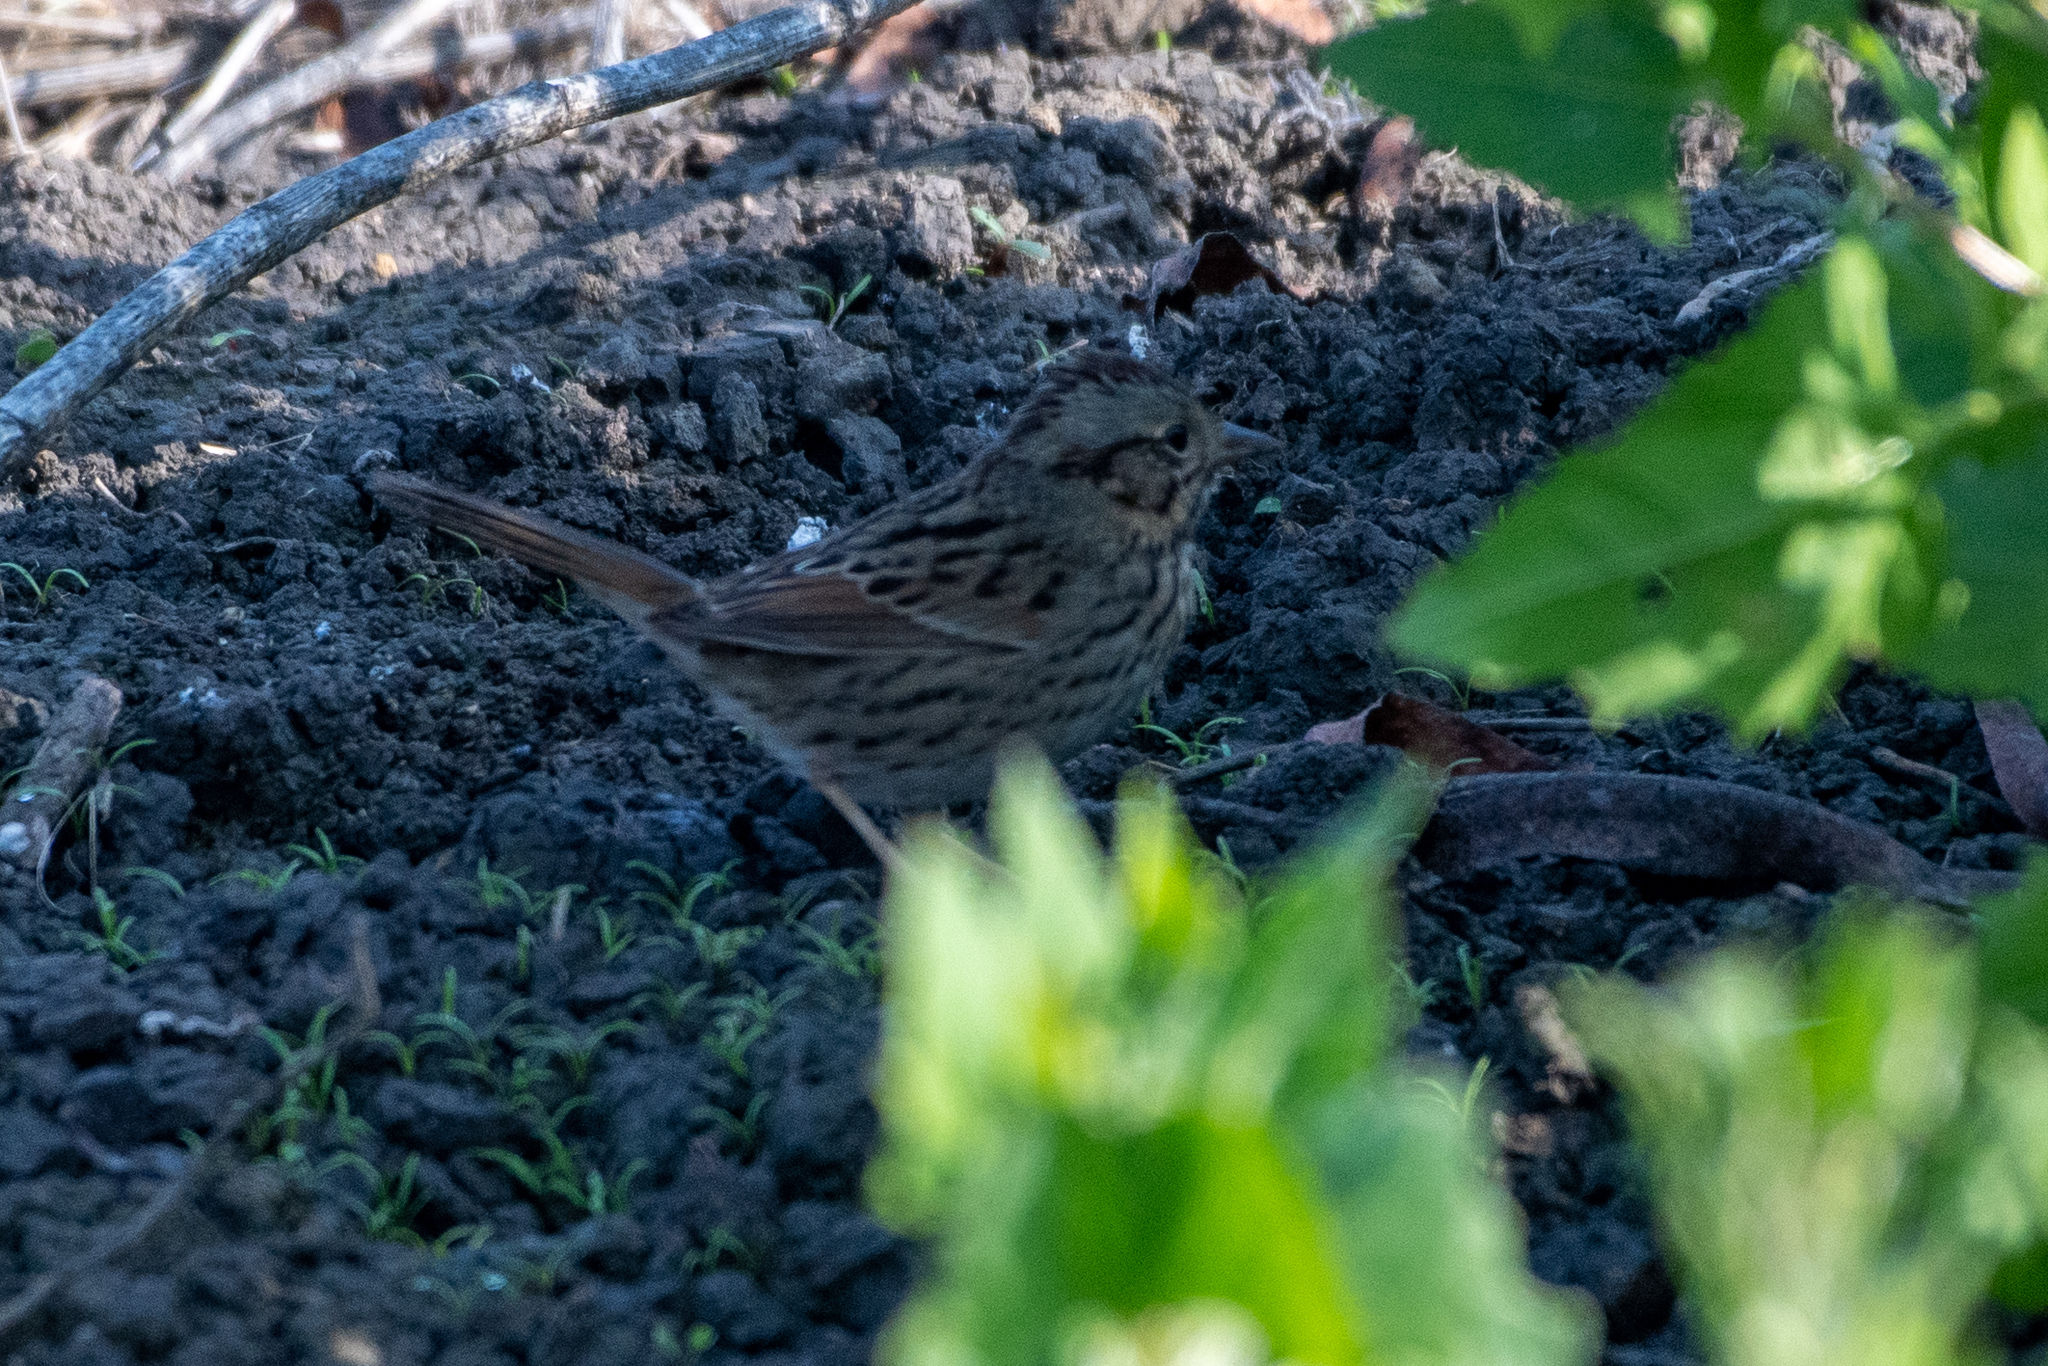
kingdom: Animalia
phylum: Chordata
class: Aves
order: Passeriformes
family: Passerellidae
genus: Melospiza
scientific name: Melospiza lincolnii
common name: Lincoln's sparrow
